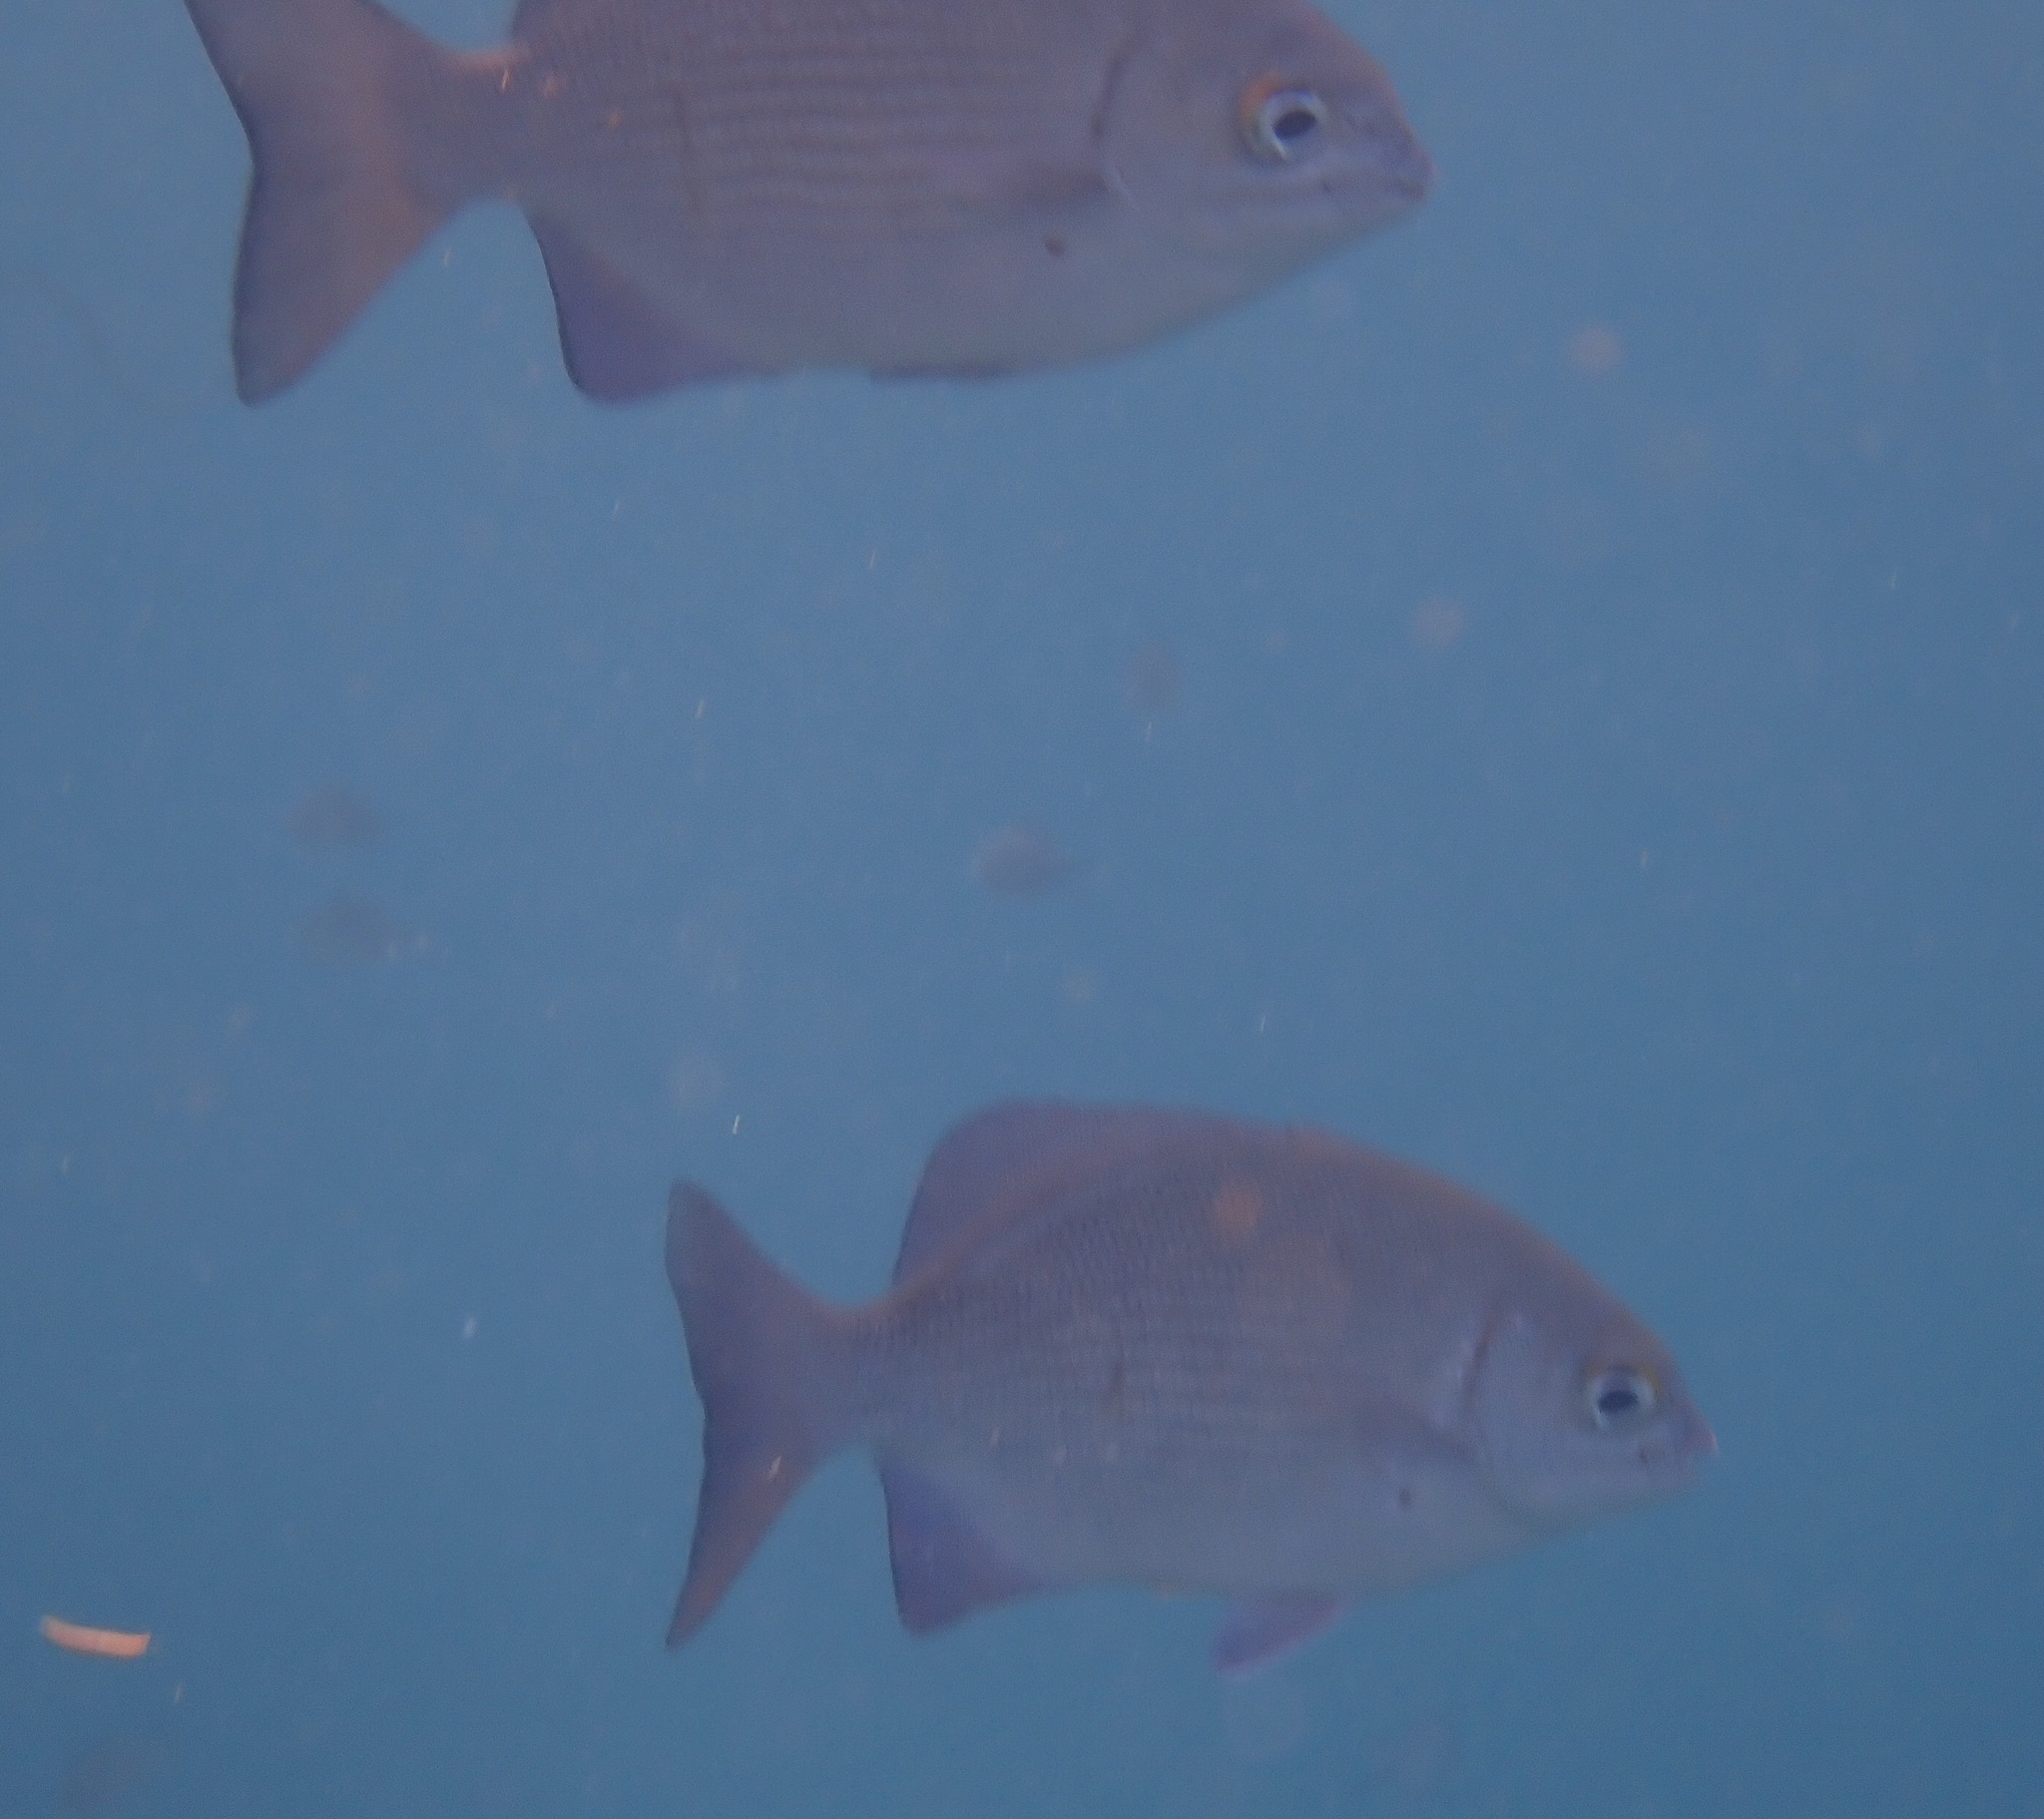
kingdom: Animalia
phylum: Chordata
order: Perciformes
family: Kyphosidae
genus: Kyphosus
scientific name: Kyphosus vaigiensis
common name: Brassy chub
